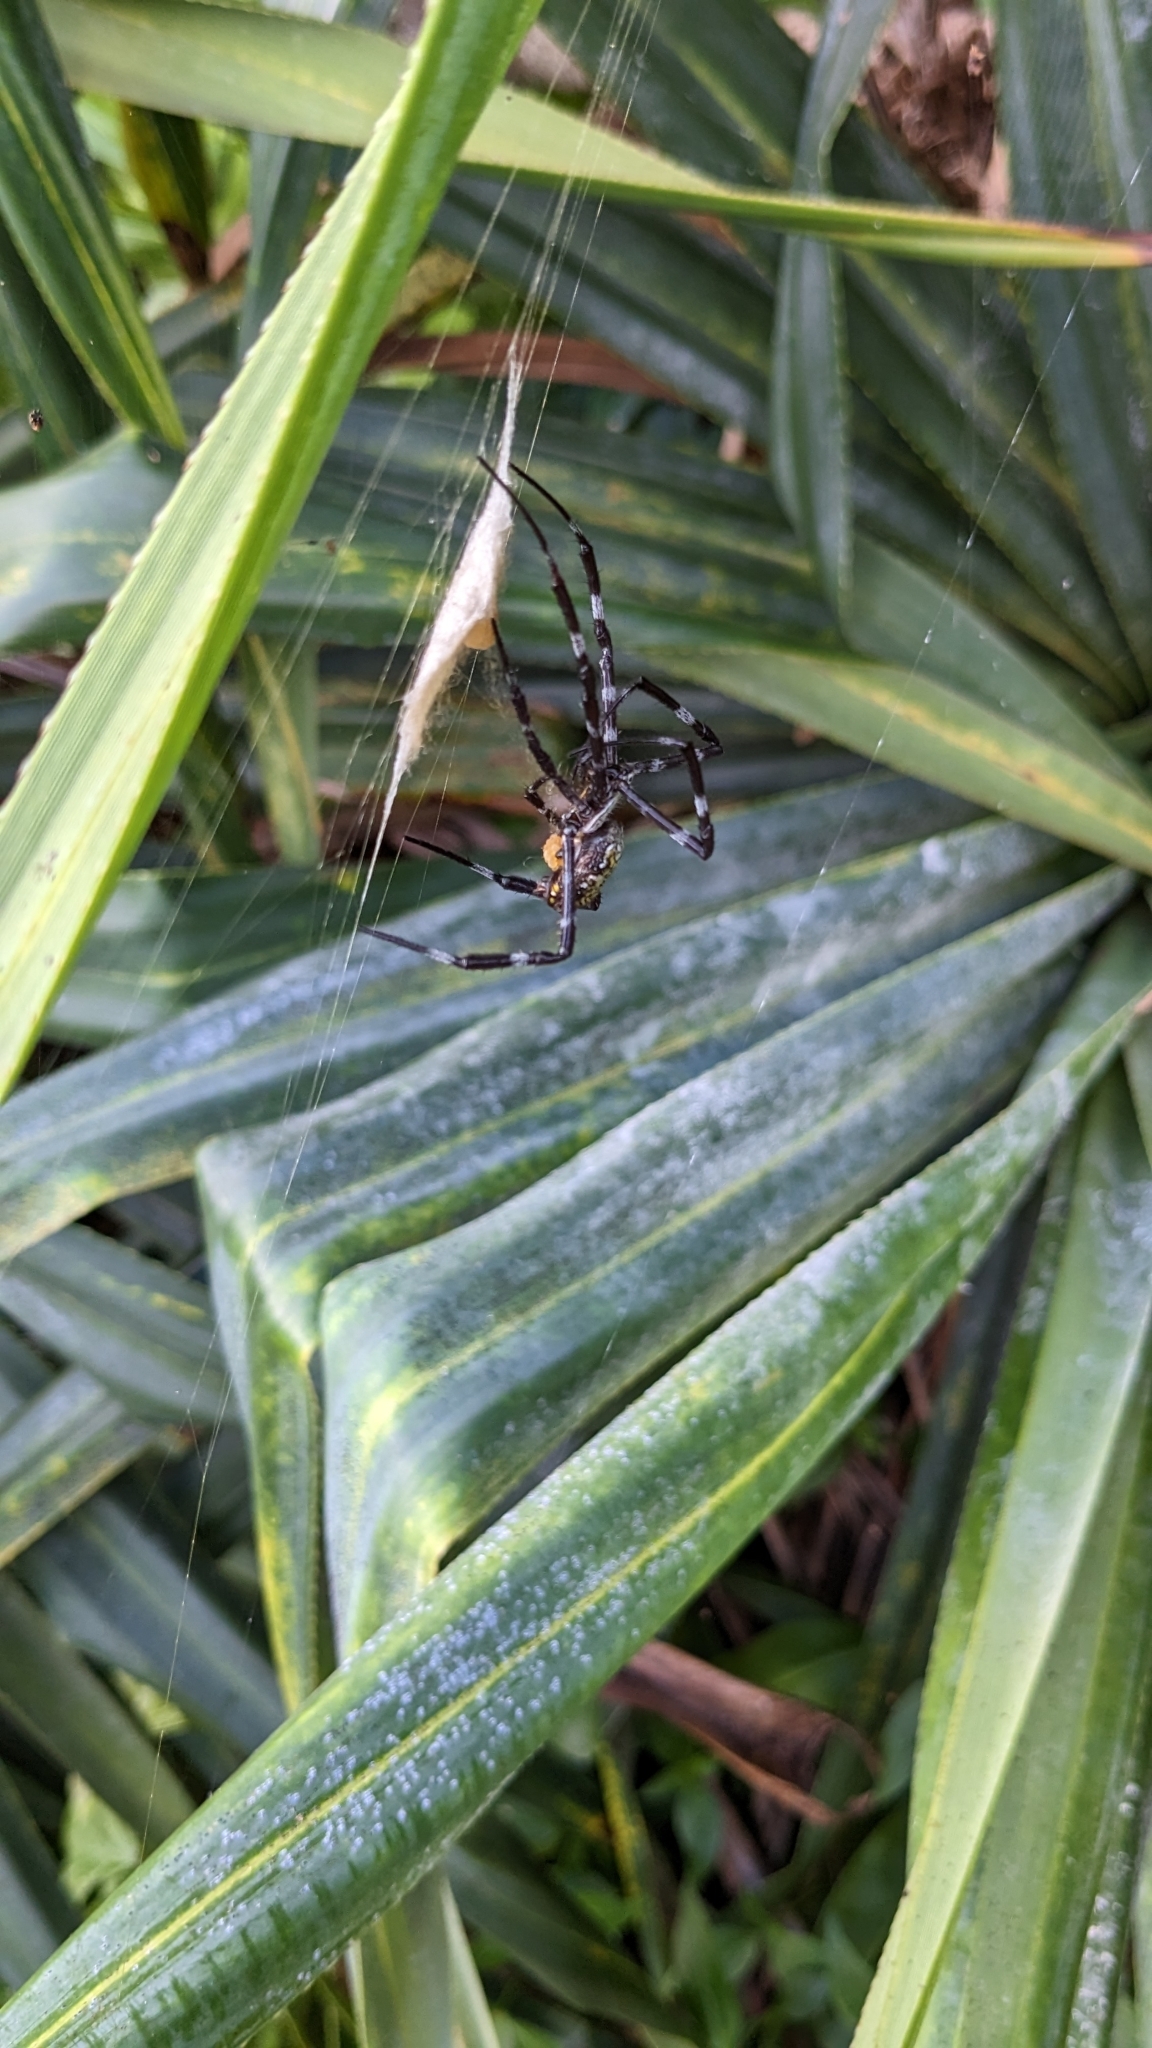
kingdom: Animalia
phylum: Arthropoda
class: Arachnida
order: Araneae
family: Araneidae
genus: Argiope
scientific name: Argiope appensa
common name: Garden spider
